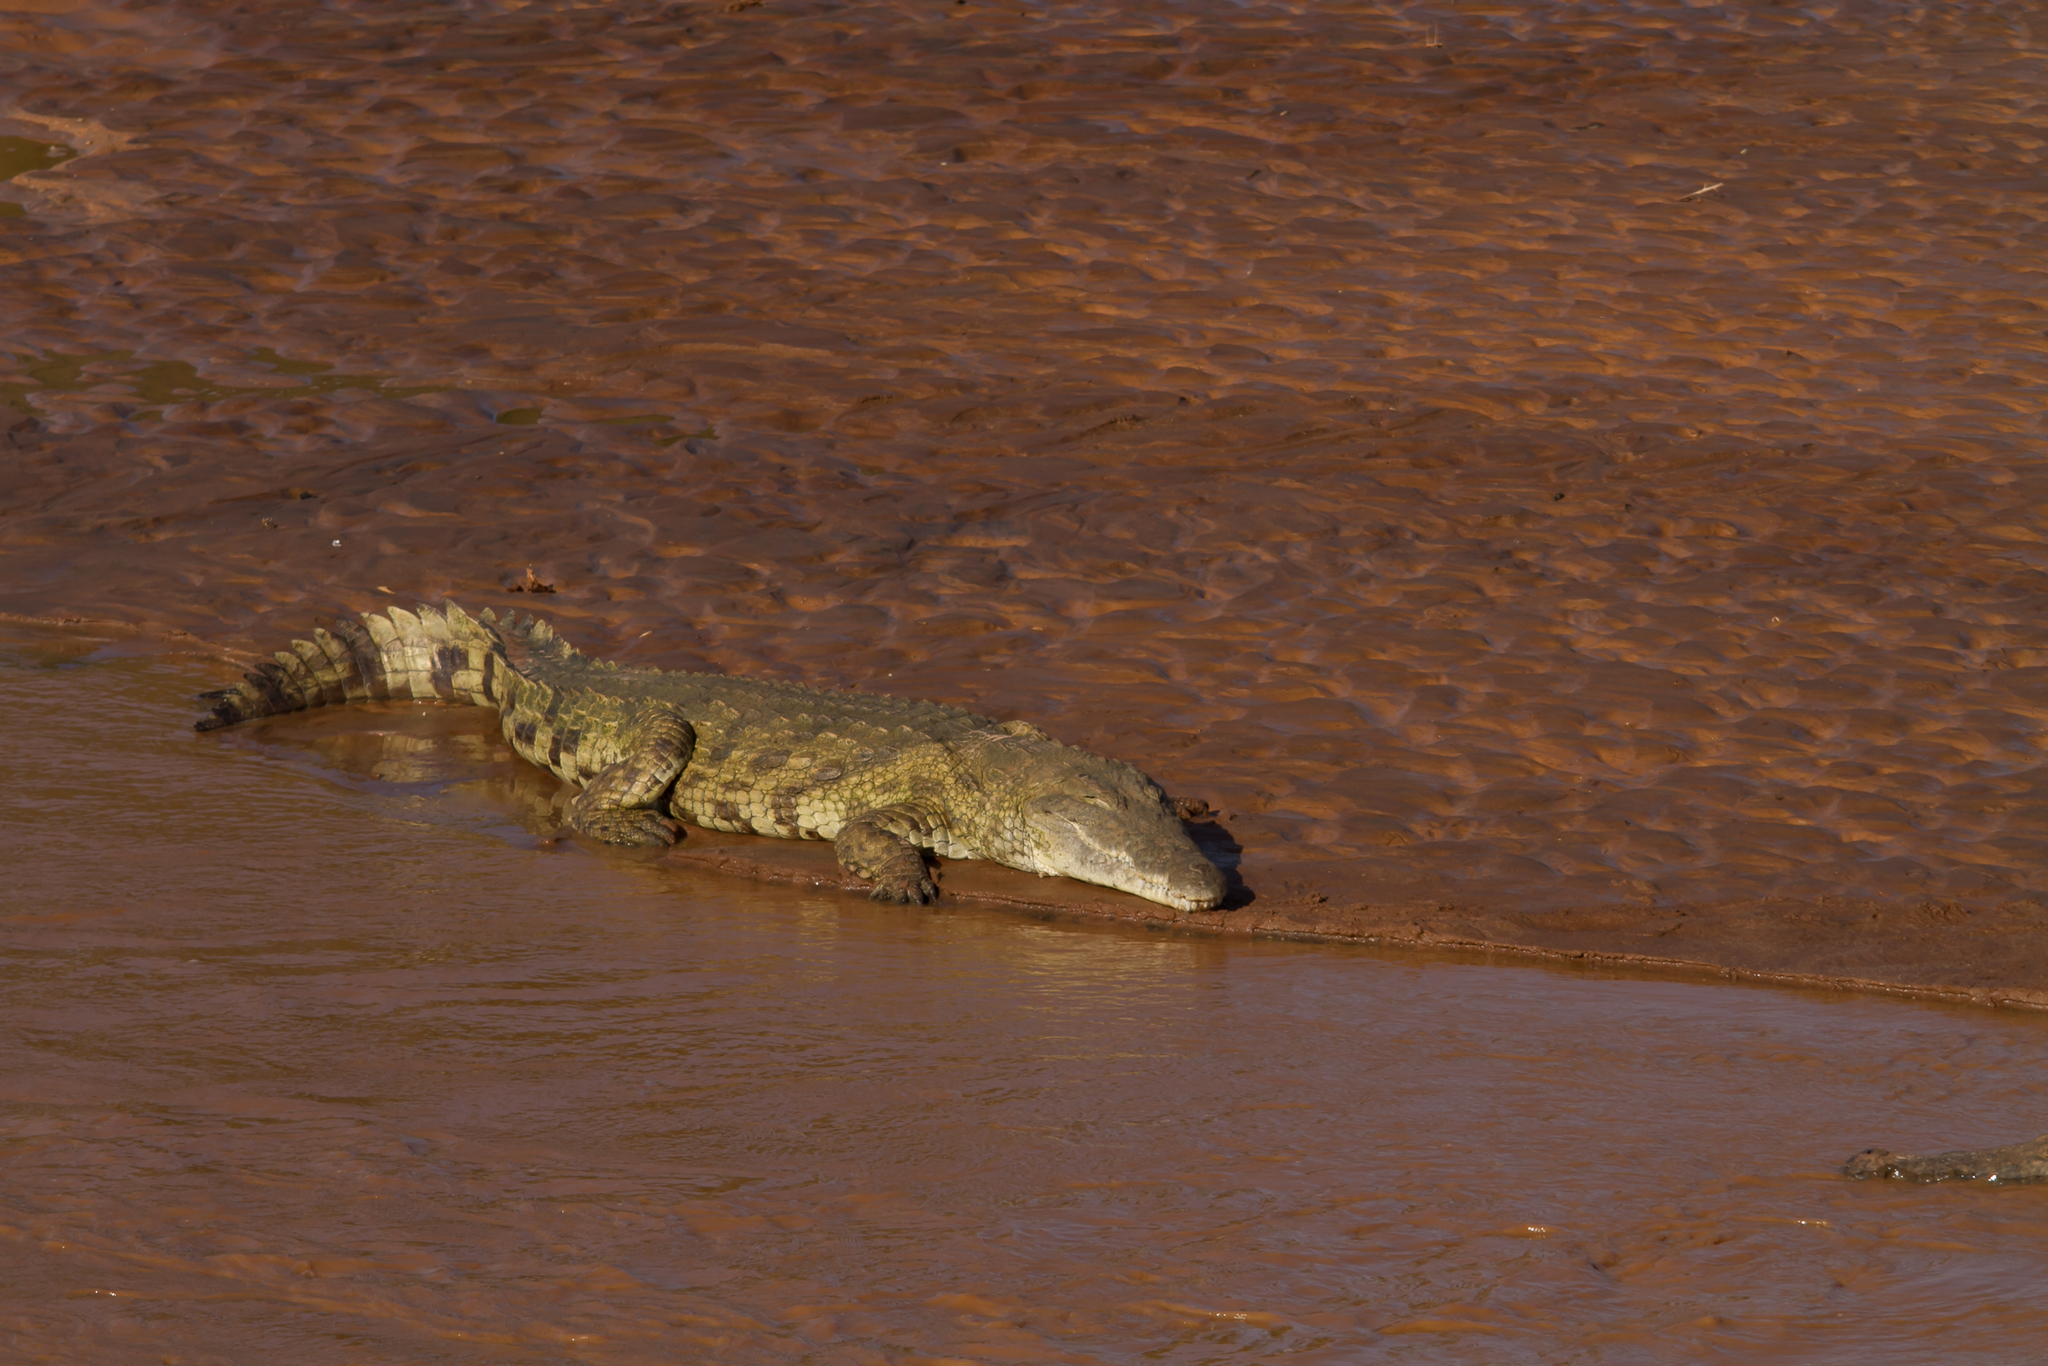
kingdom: Animalia
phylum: Chordata
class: Crocodylia
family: Crocodylidae
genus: Crocodylus
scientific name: Crocodylus niloticus
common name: Nile crocodile
